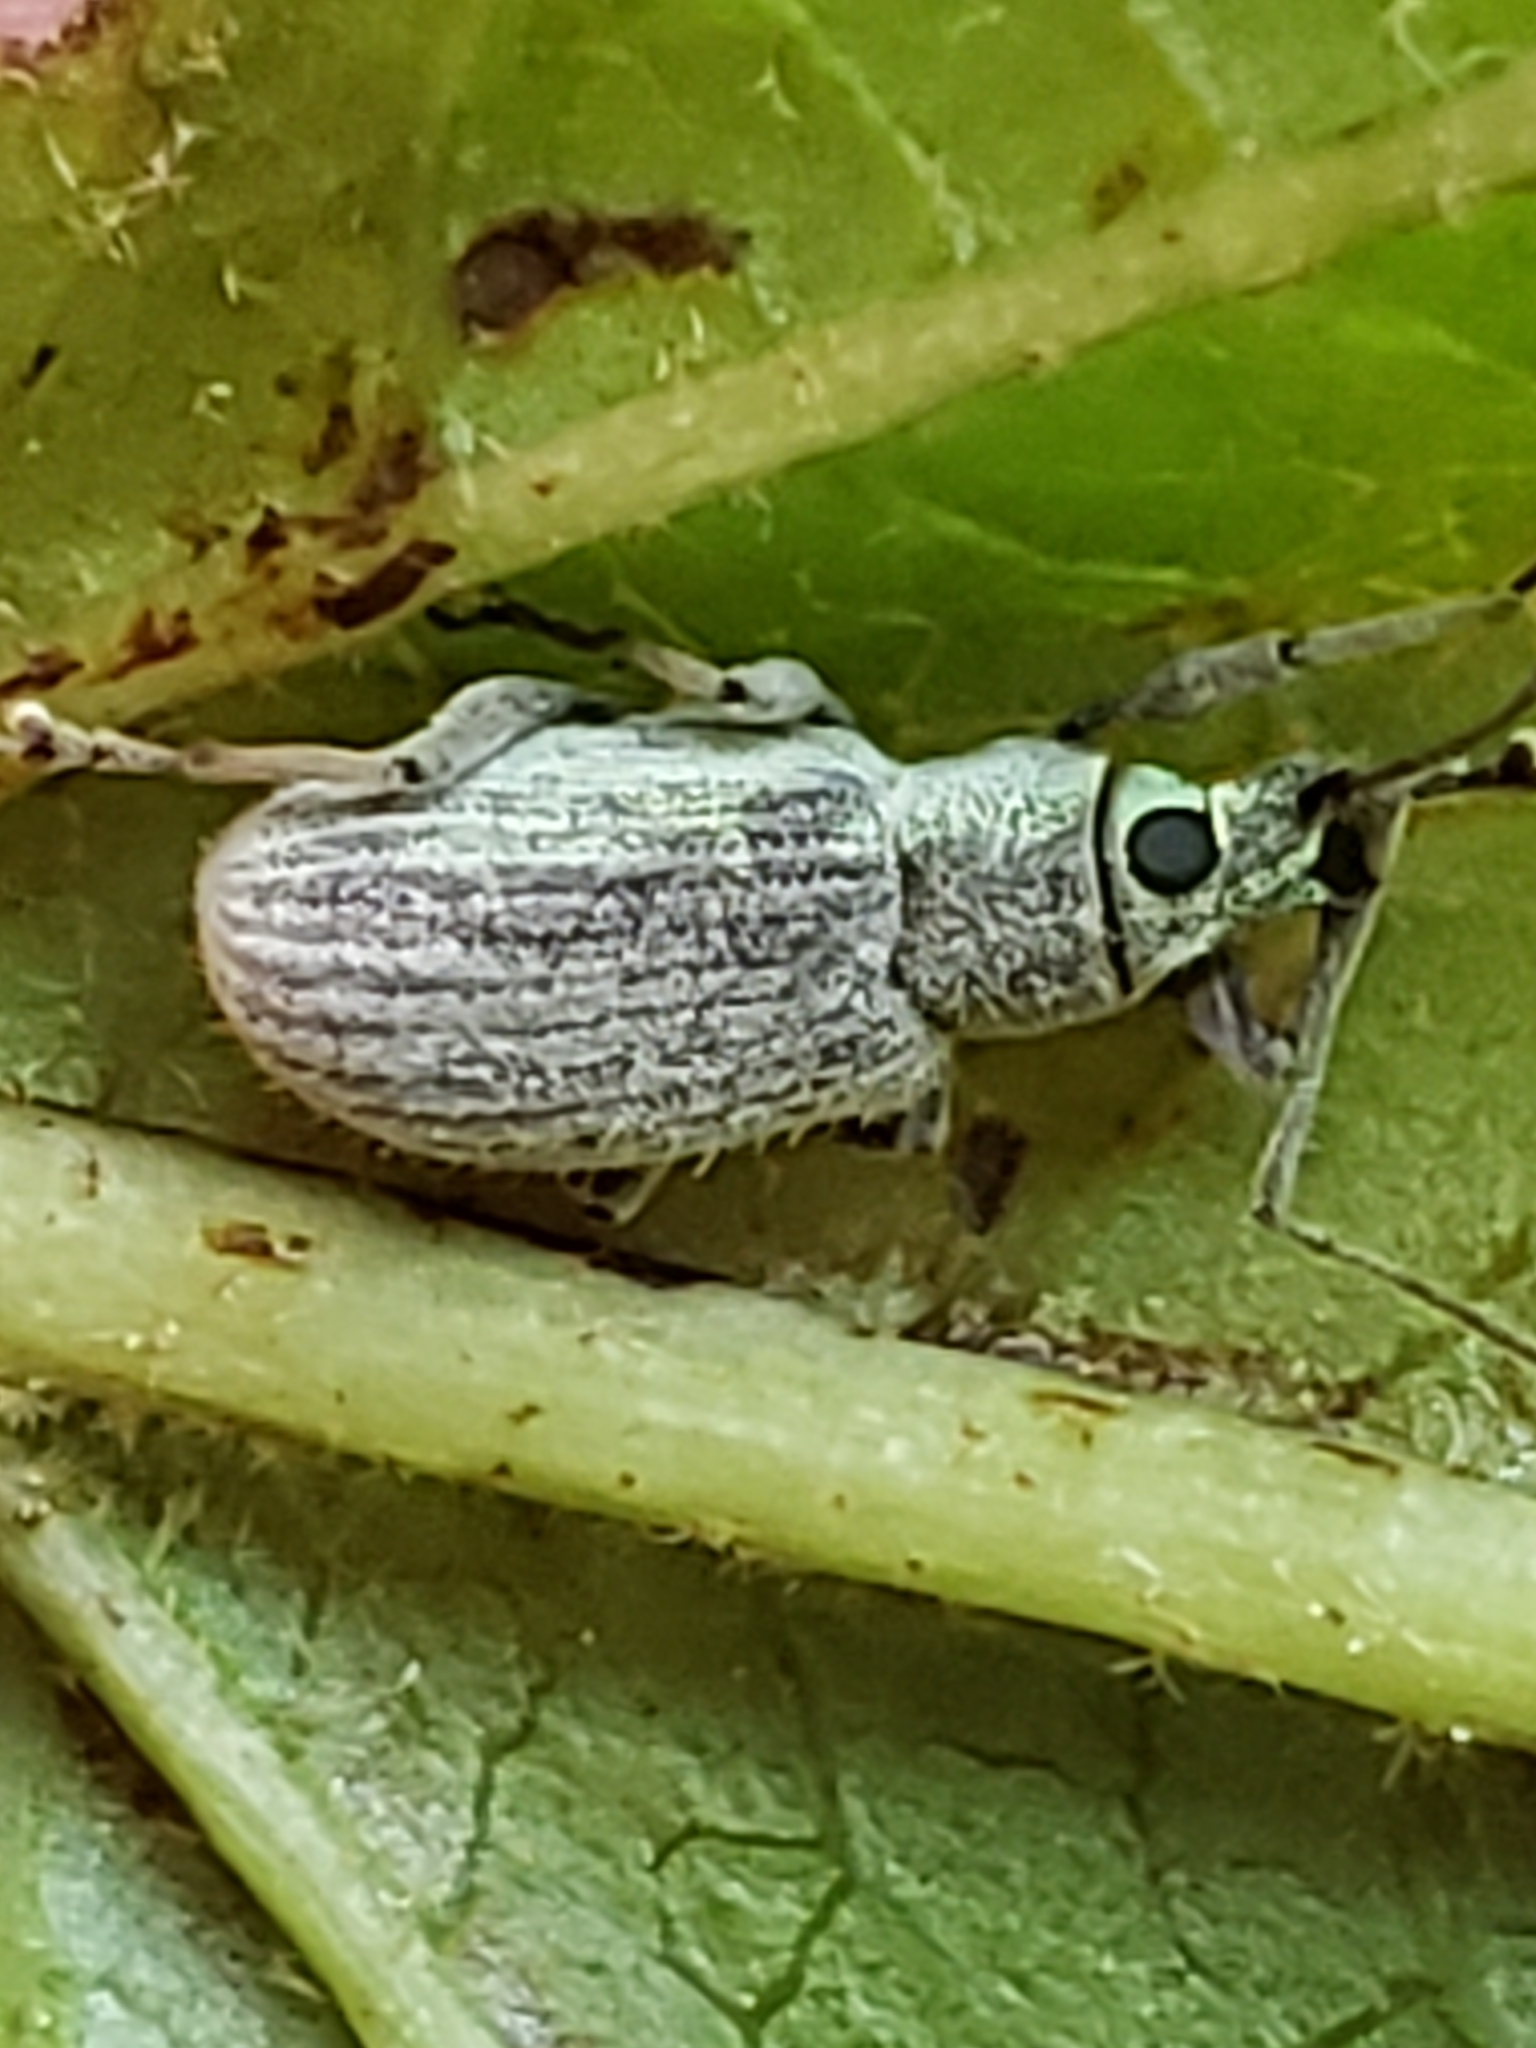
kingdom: Animalia
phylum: Arthropoda
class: Insecta
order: Coleoptera
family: Curculionidae
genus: Cyrtepistomus
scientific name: Cyrtepistomus castaneus
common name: Weevil
